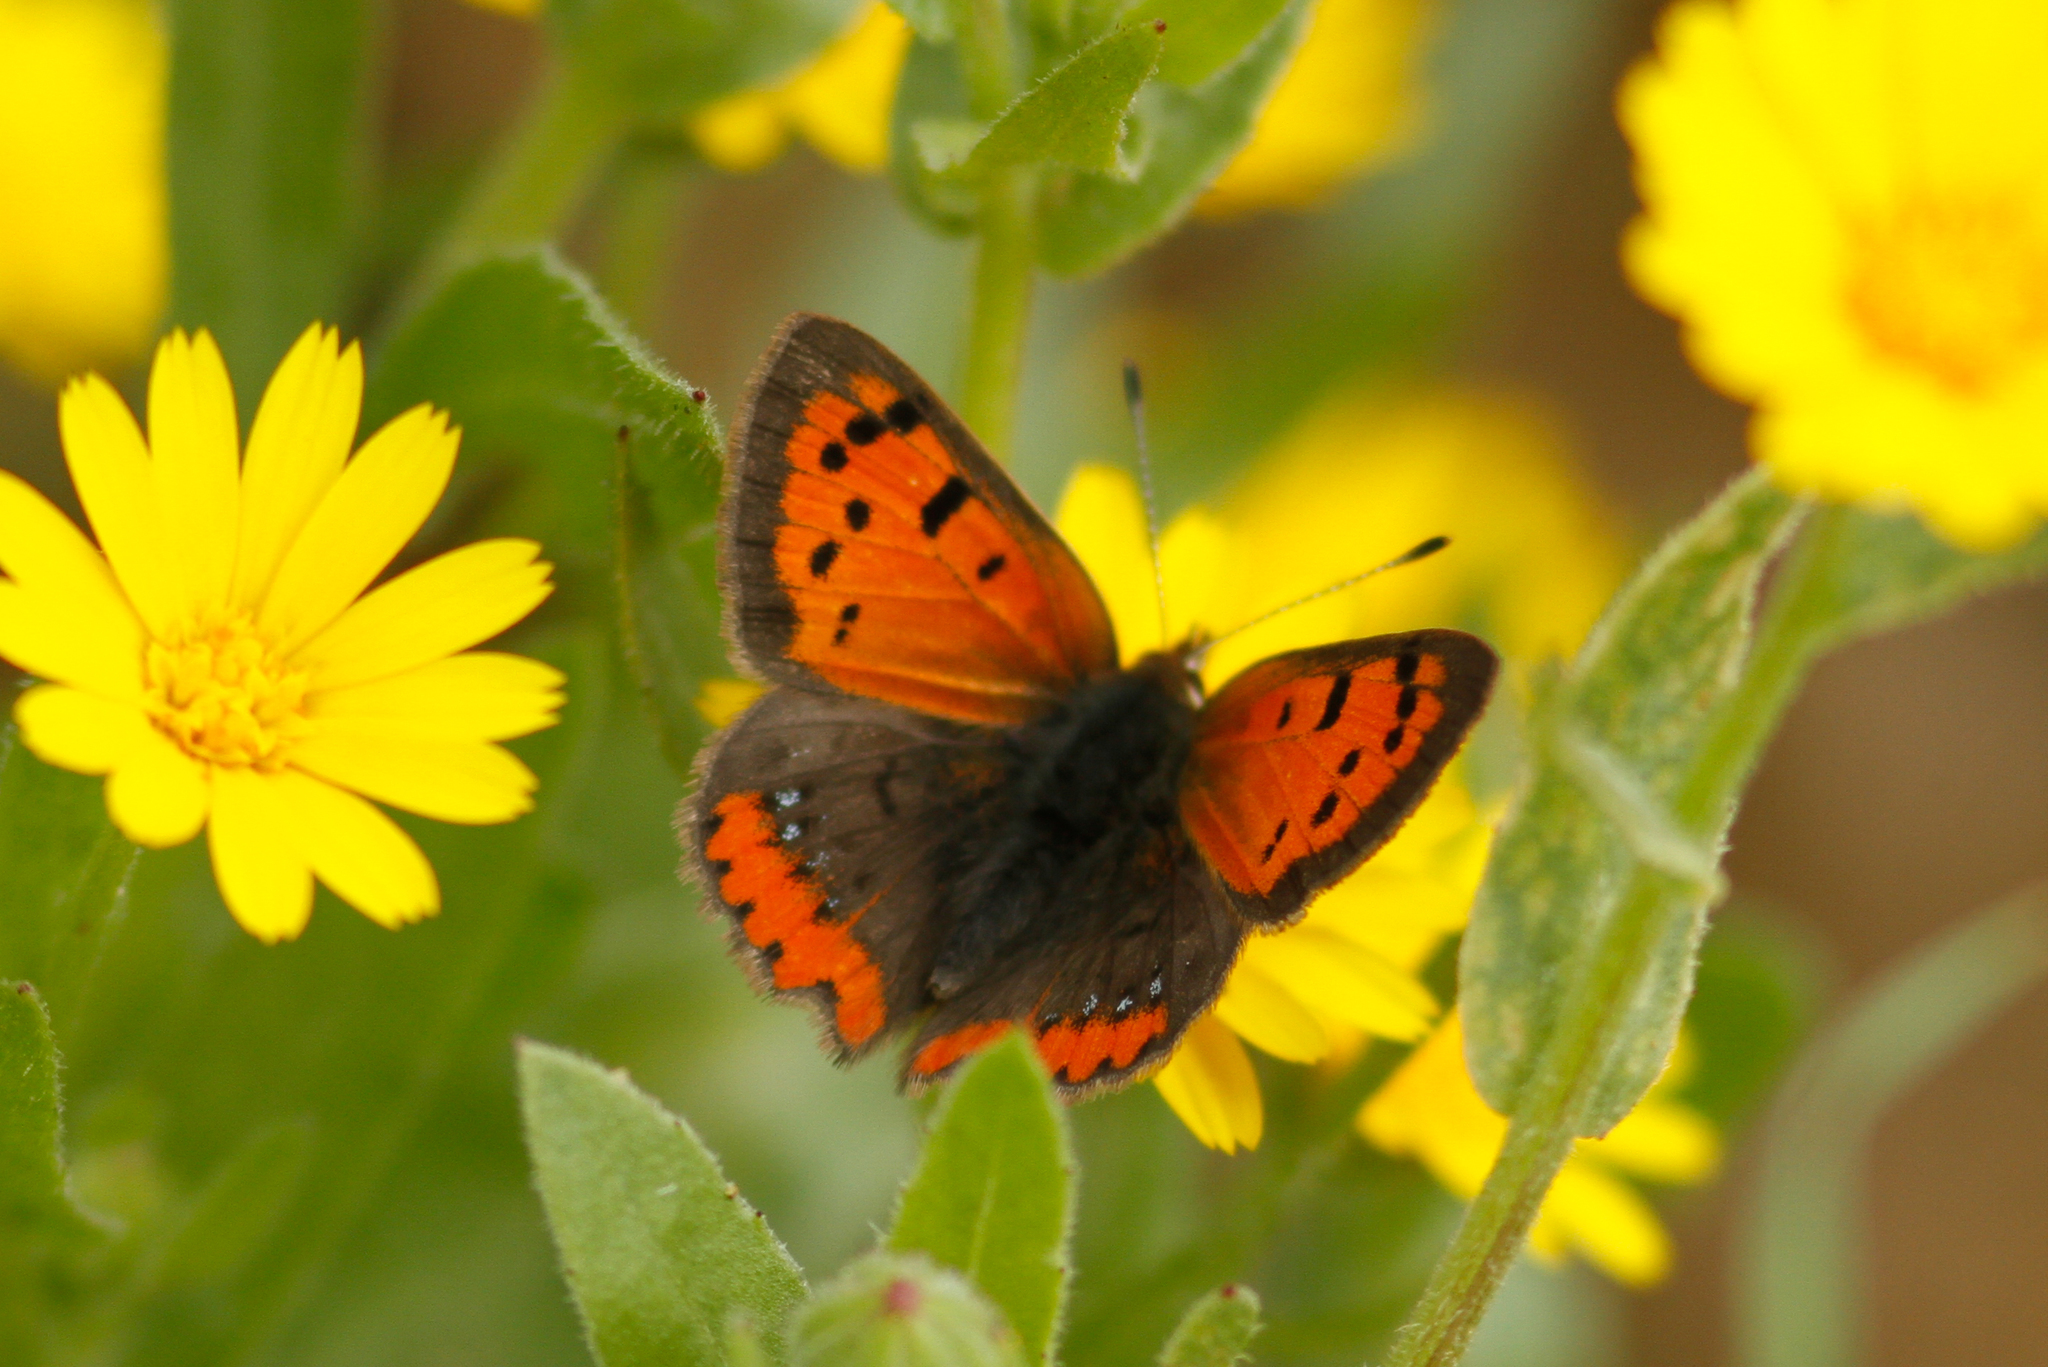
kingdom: Animalia
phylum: Arthropoda
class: Insecta
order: Lepidoptera
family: Lycaenidae
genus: Lycaena
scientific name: Lycaena phlaeas
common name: Small copper
